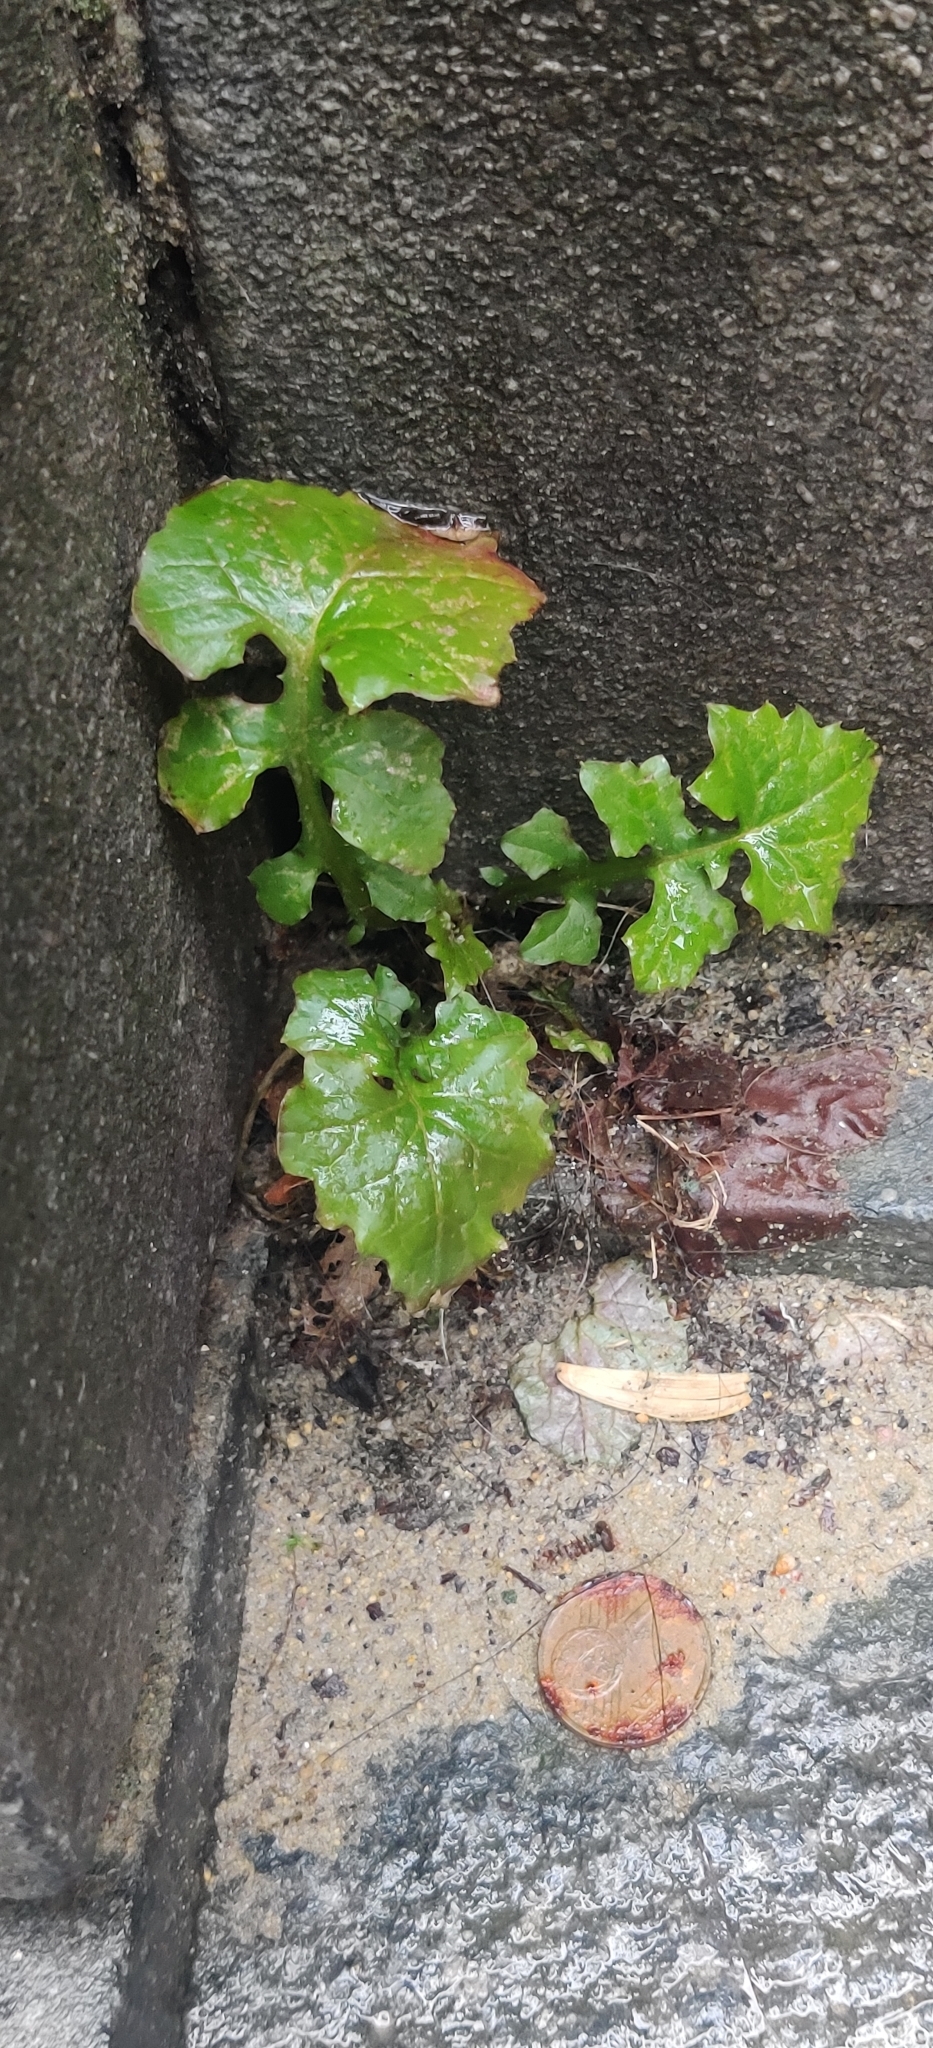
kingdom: Plantae
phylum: Tracheophyta
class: Magnoliopsida
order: Asterales
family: Asteraceae
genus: Mycelis
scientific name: Mycelis muralis
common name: Wall lettuce
